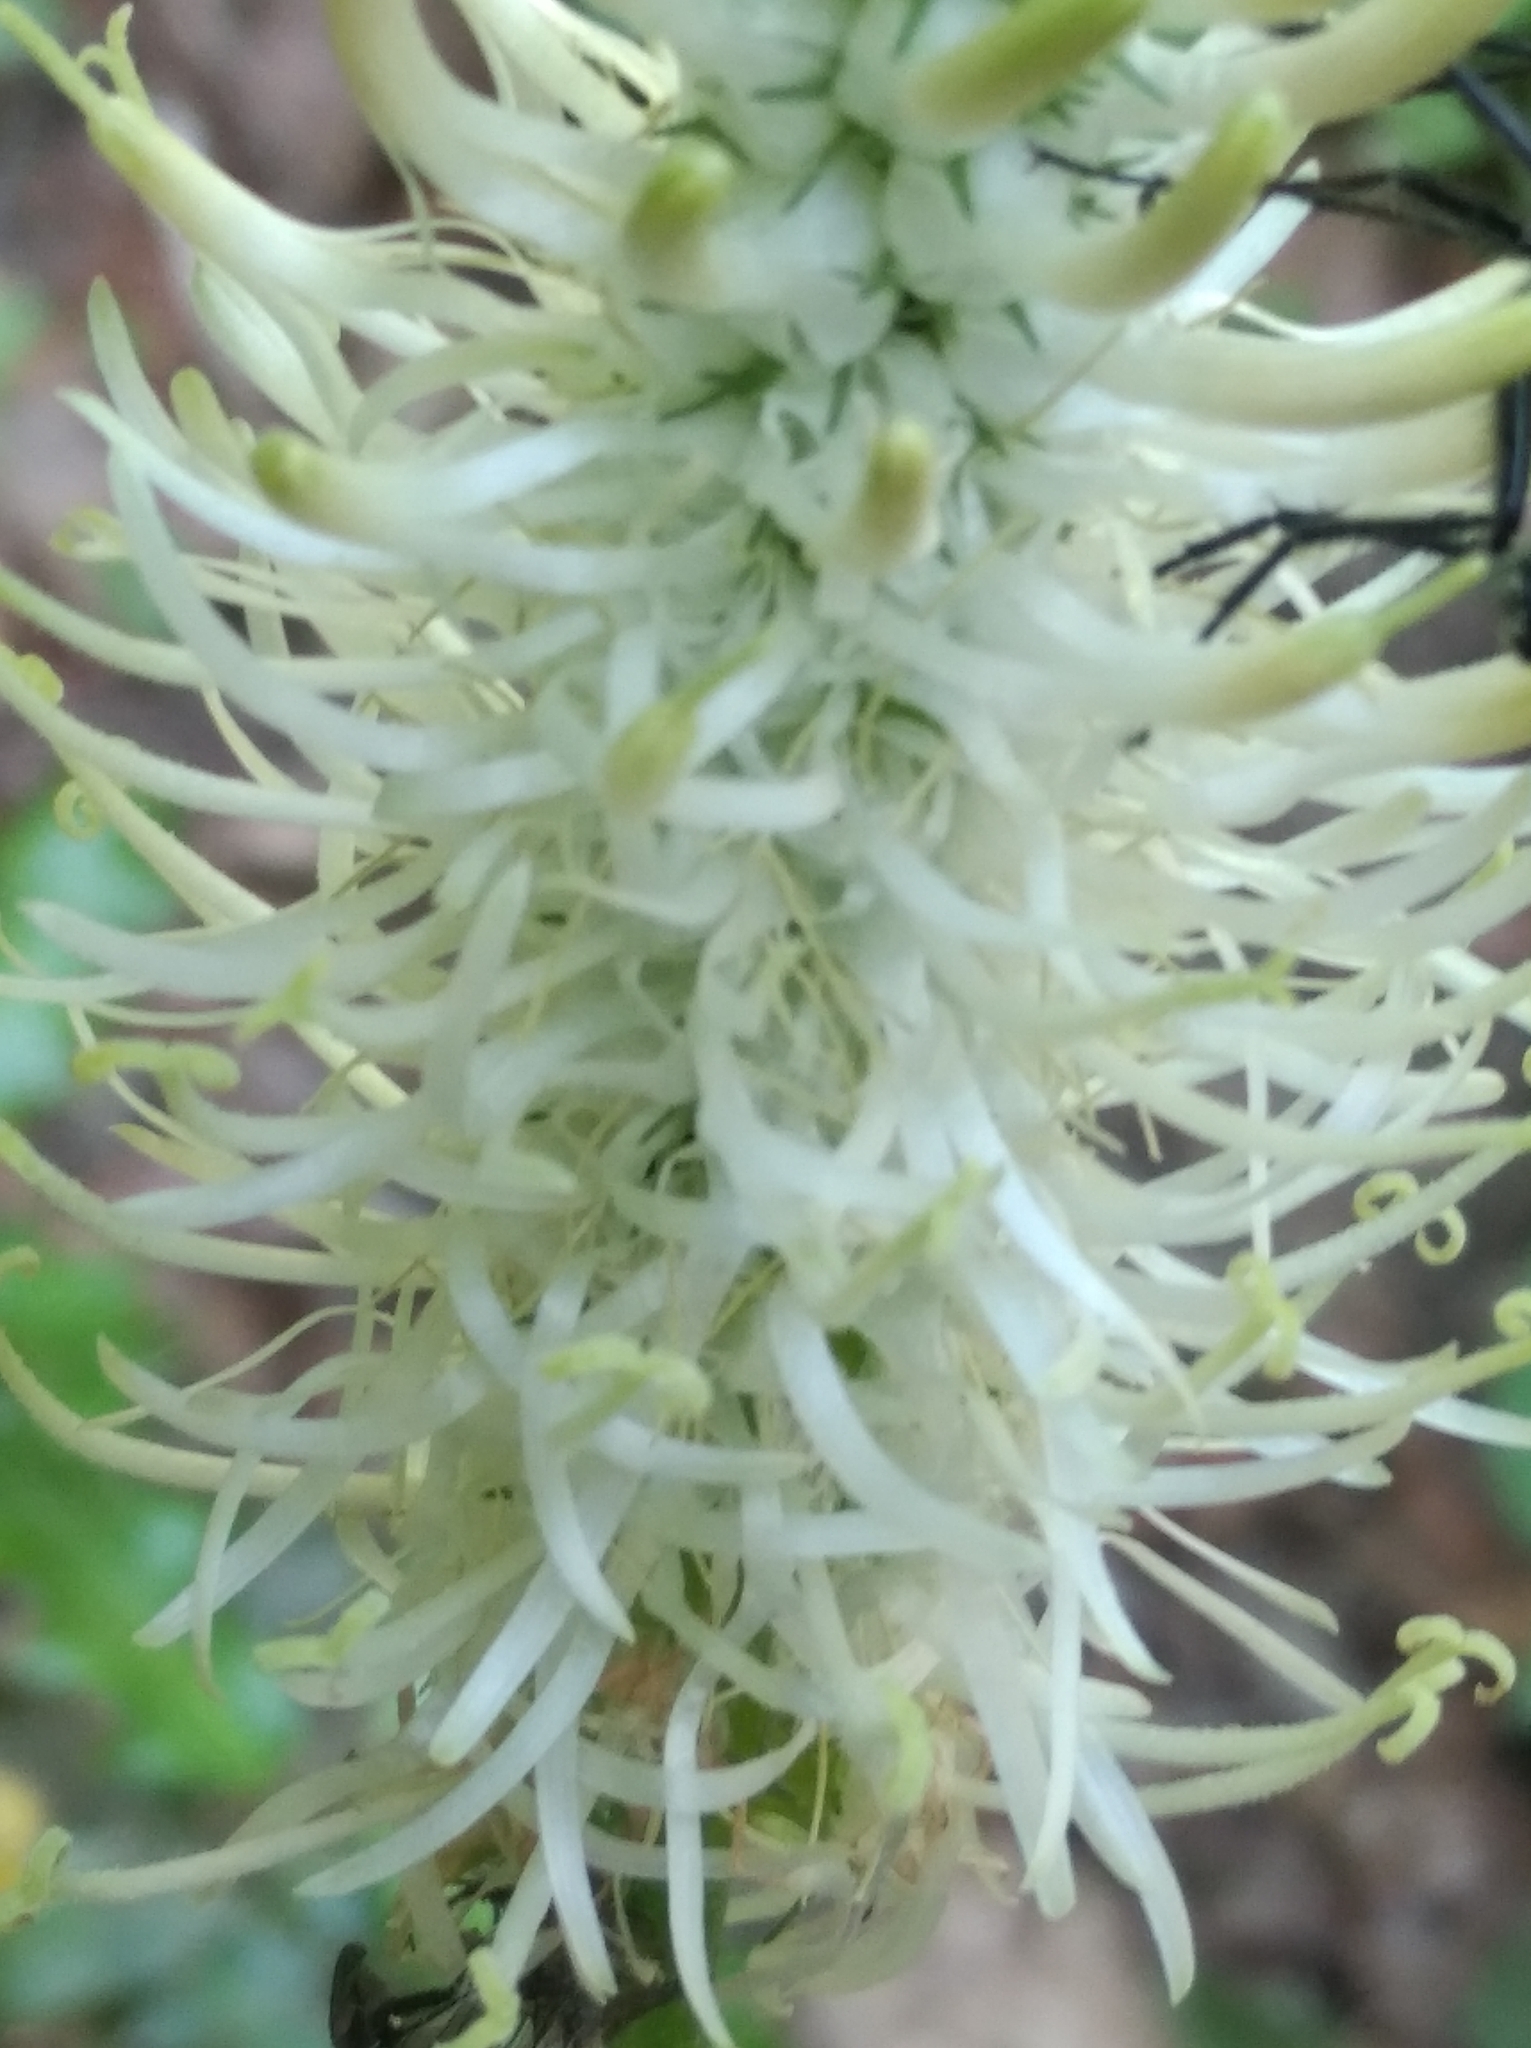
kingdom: Plantae
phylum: Tracheophyta
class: Magnoliopsida
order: Asterales
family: Campanulaceae
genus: Phyteuma
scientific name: Phyteuma spicatum
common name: Spiked rampion
